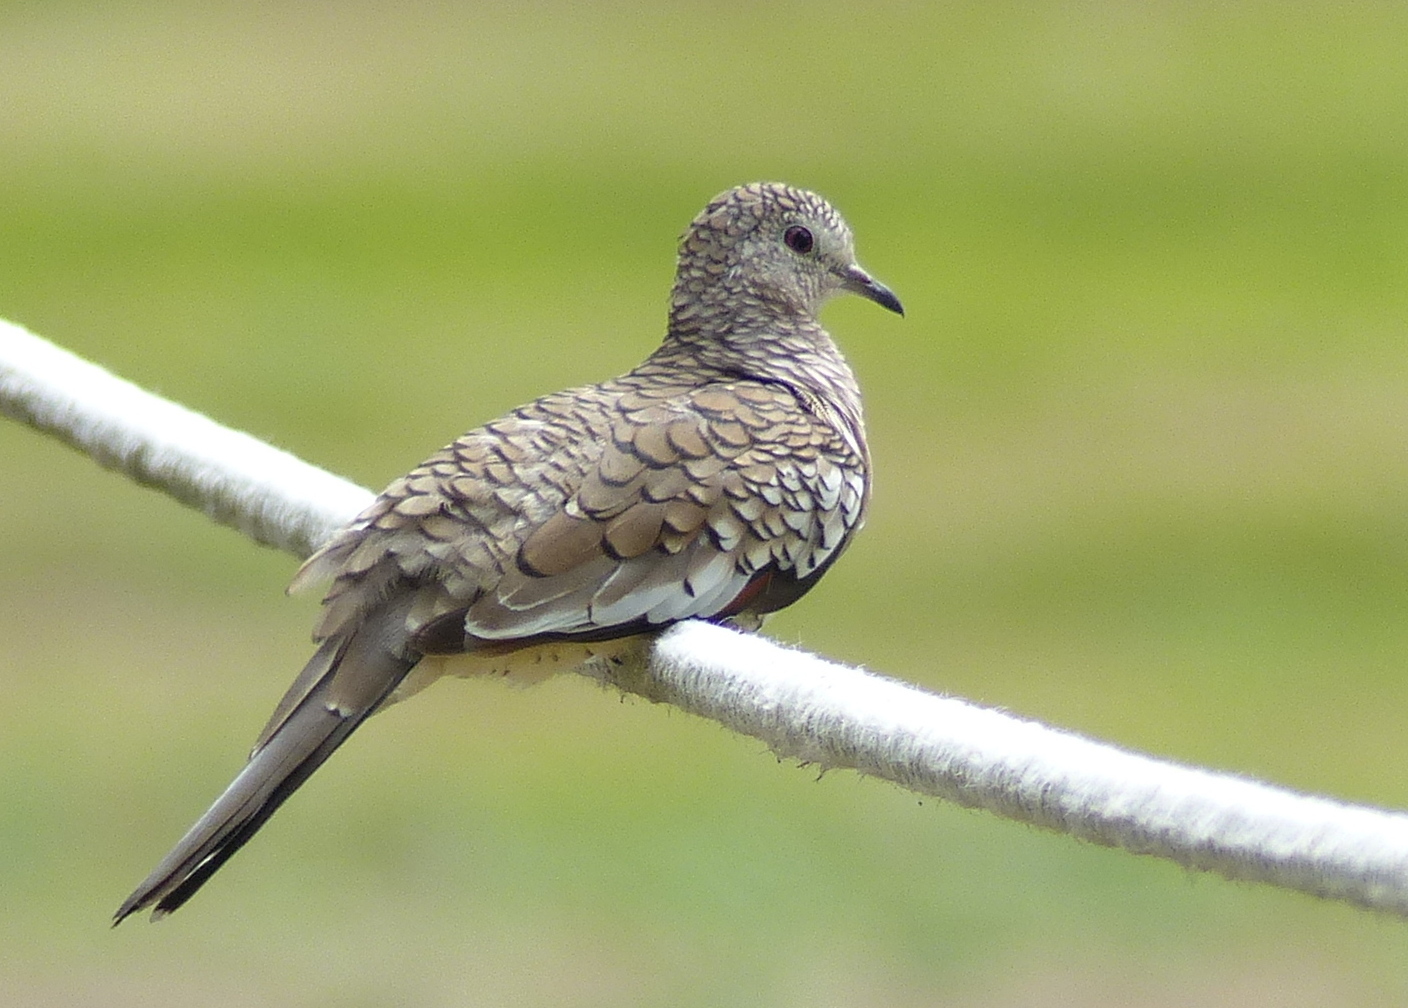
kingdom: Animalia
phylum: Chordata
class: Aves
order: Columbiformes
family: Columbidae
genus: Columbina
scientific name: Columbina squammata
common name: Scaled dove
